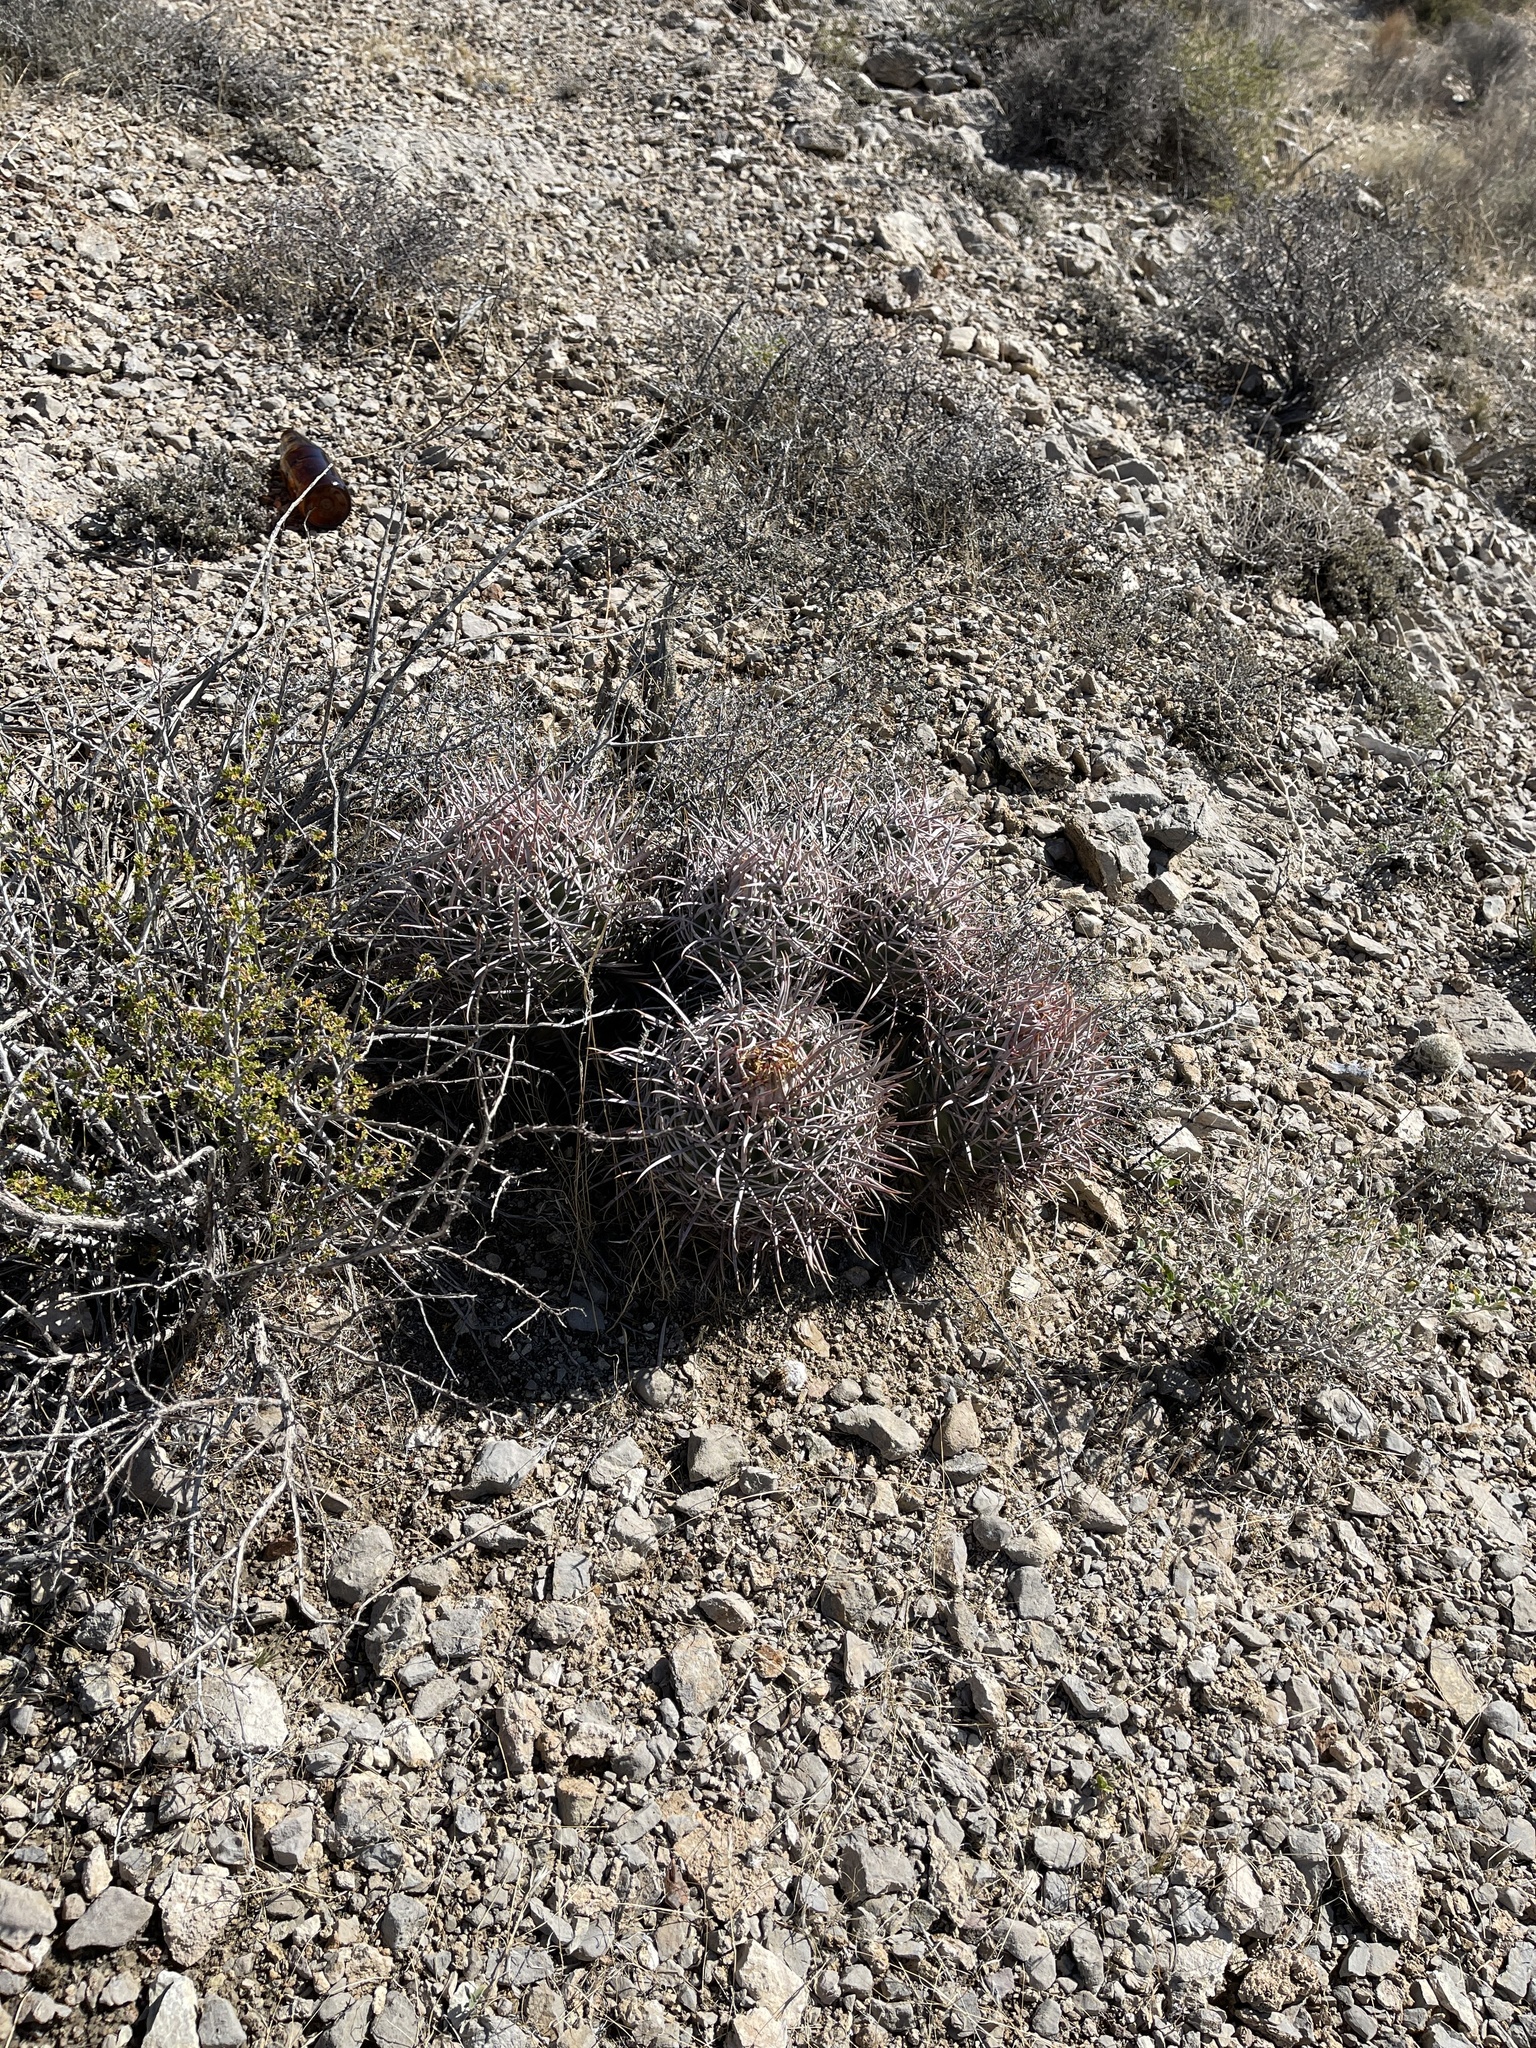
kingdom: Plantae
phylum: Tracheophyta
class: Magnoliopsida
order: Caryophyllales
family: Cactaceae
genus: Echinocactus
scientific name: Echinocactus polycephalus
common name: Cottontop cactus
